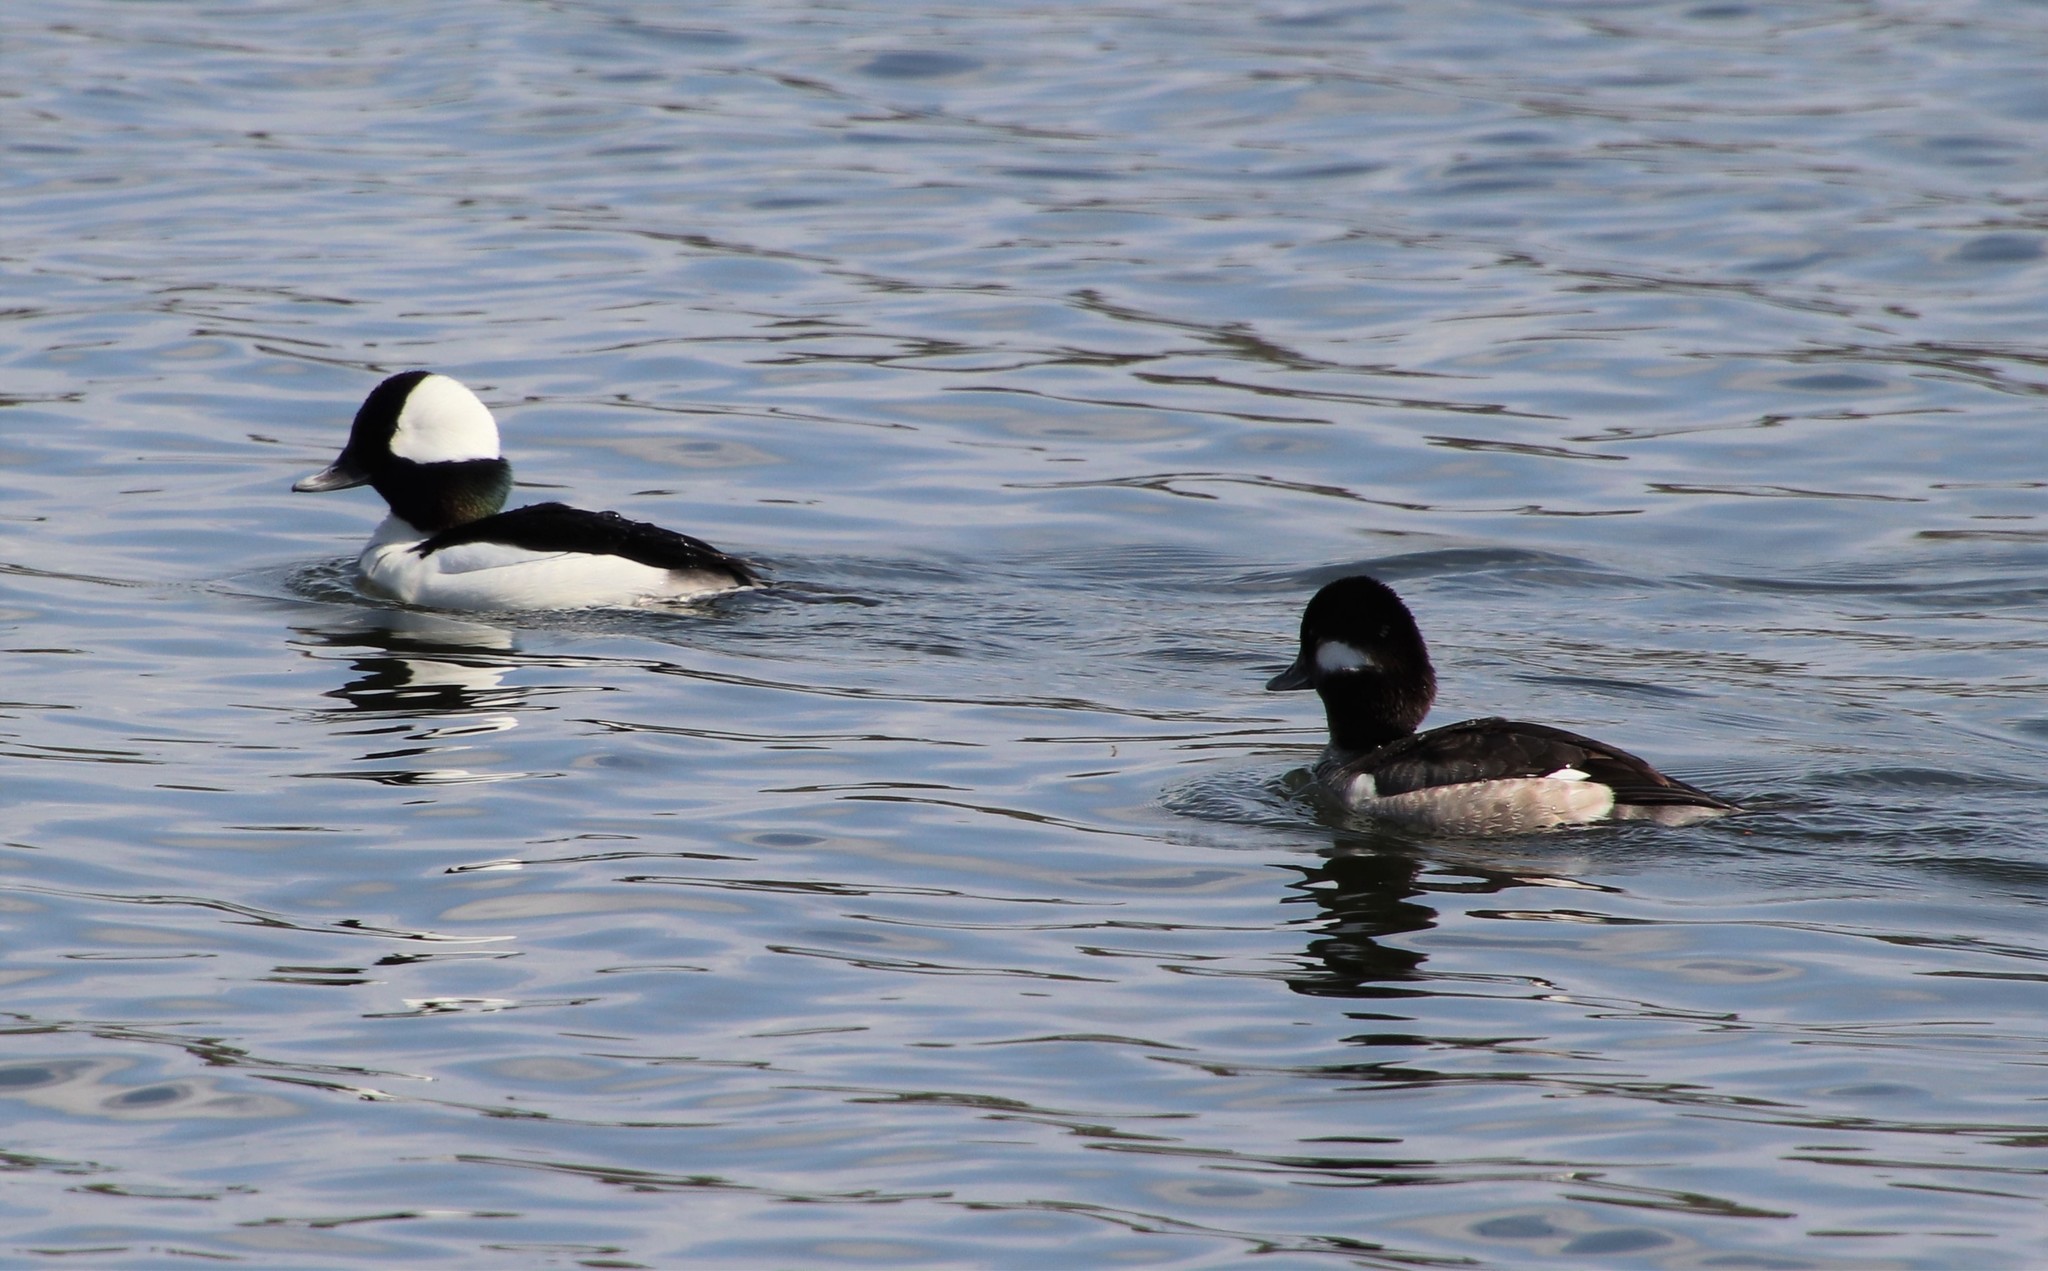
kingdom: Animalia
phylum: Chordata
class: Aves
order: Anseriformes
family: Anatidae
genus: Bucephala
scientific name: Bucephala albeola
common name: Bufflehead
